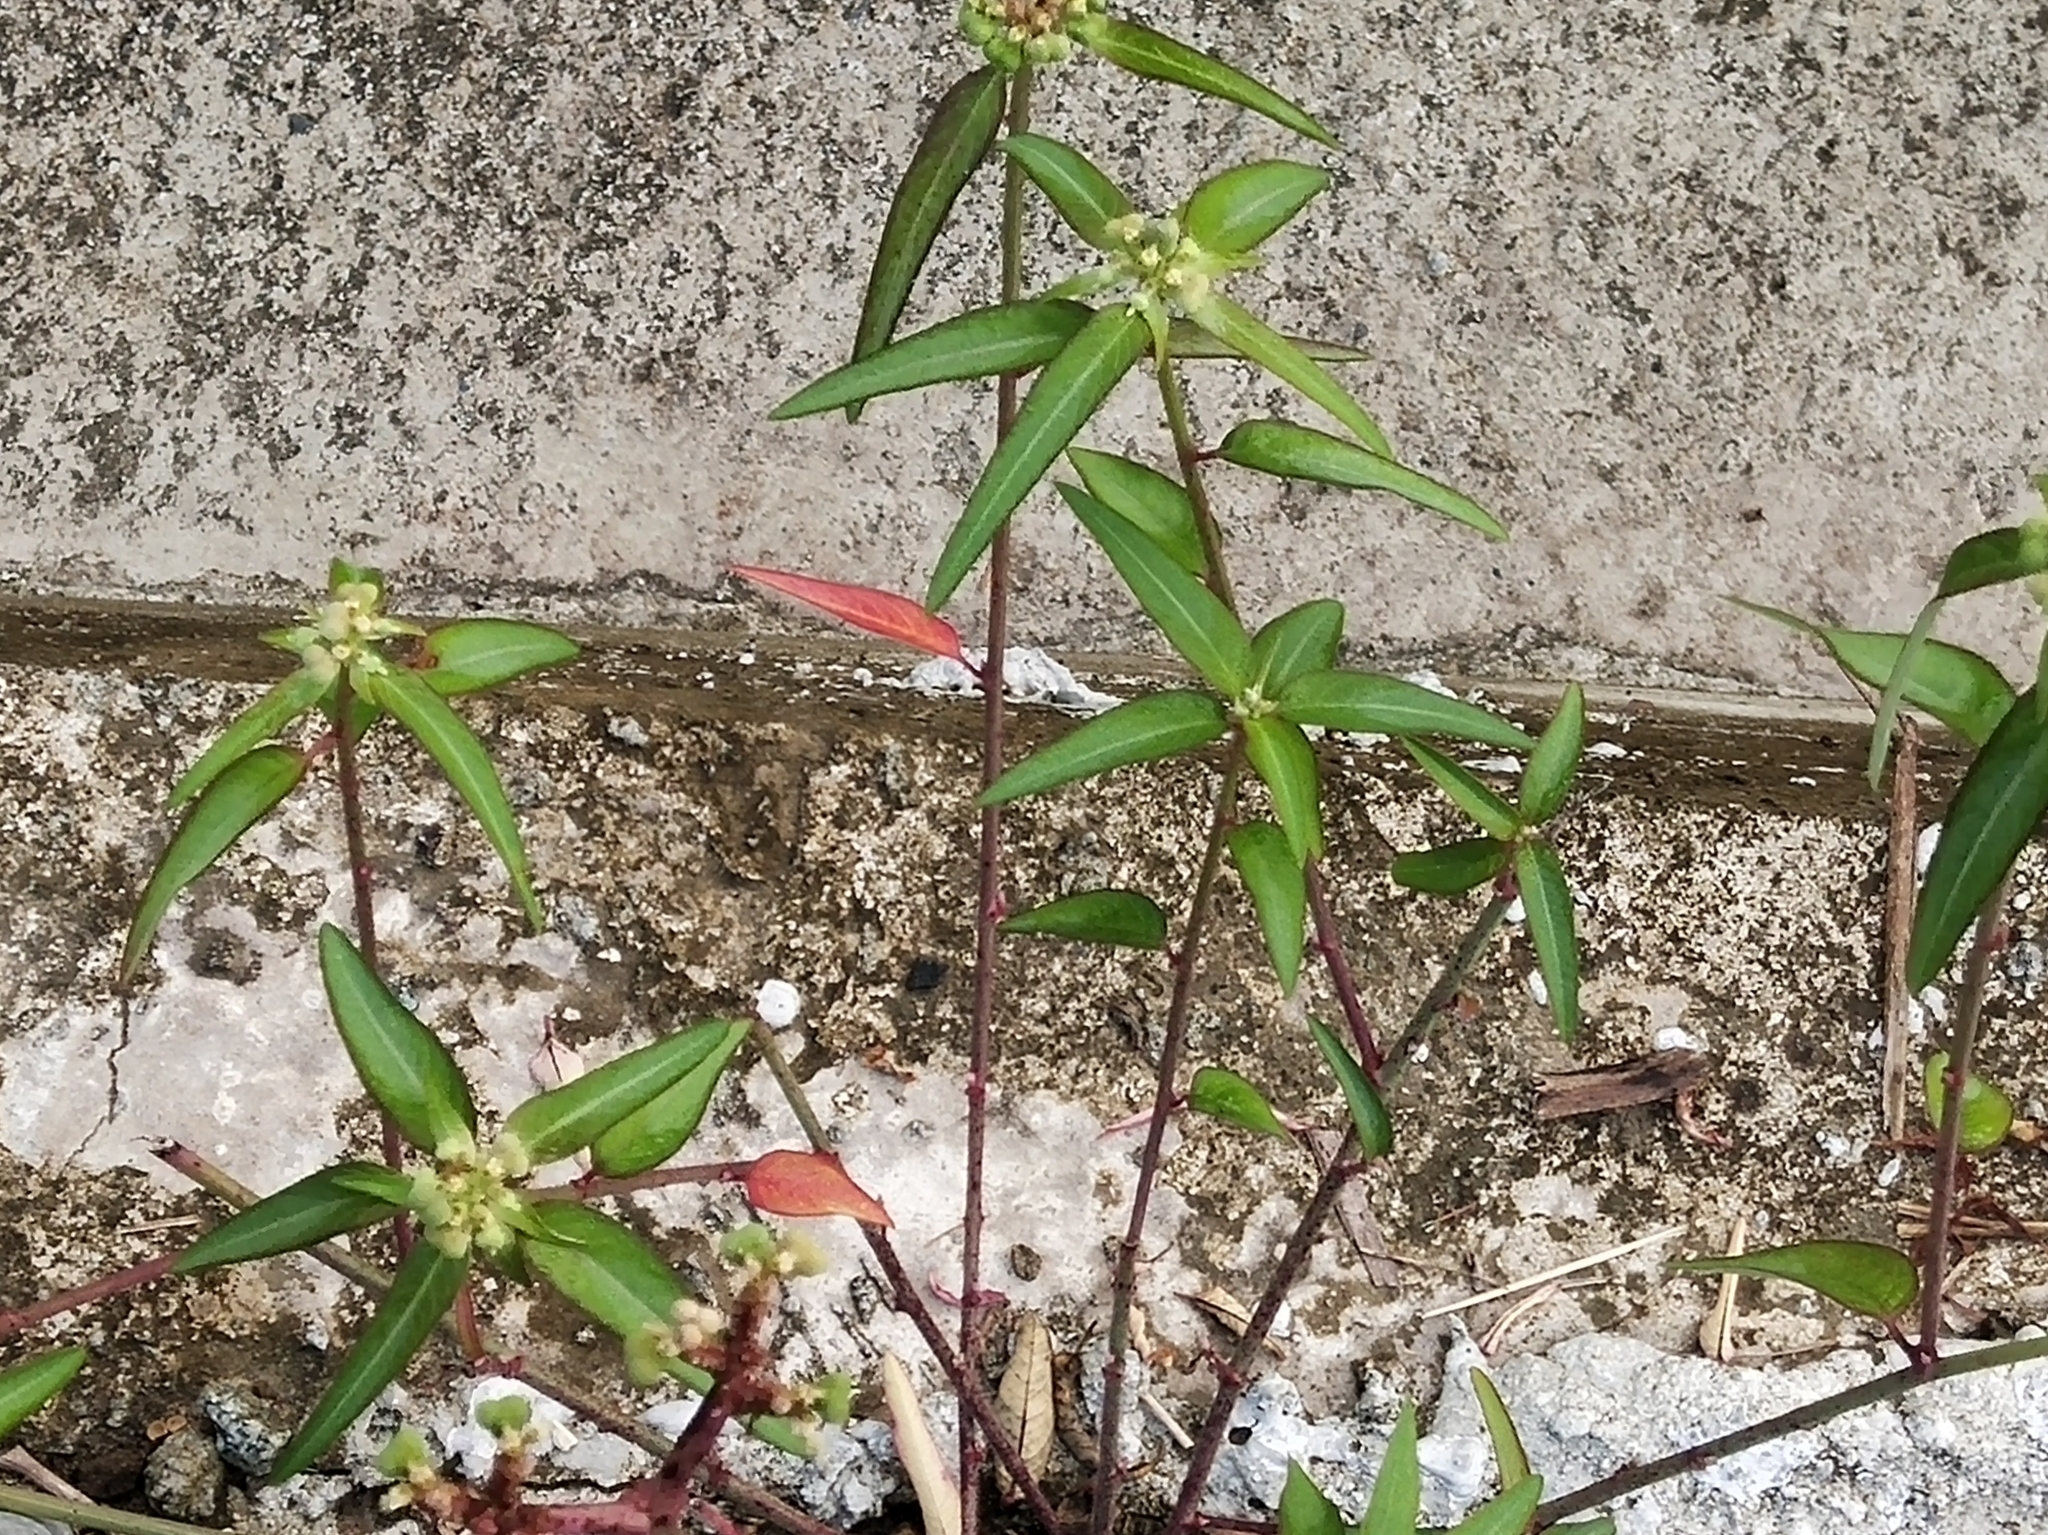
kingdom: Plantae
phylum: Tracheophyta
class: Magnoliopsida
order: Malpighiales
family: Euphorbiaceae
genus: Euphorbia
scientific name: Euphorbia heterophylla
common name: Mexican fireplant
